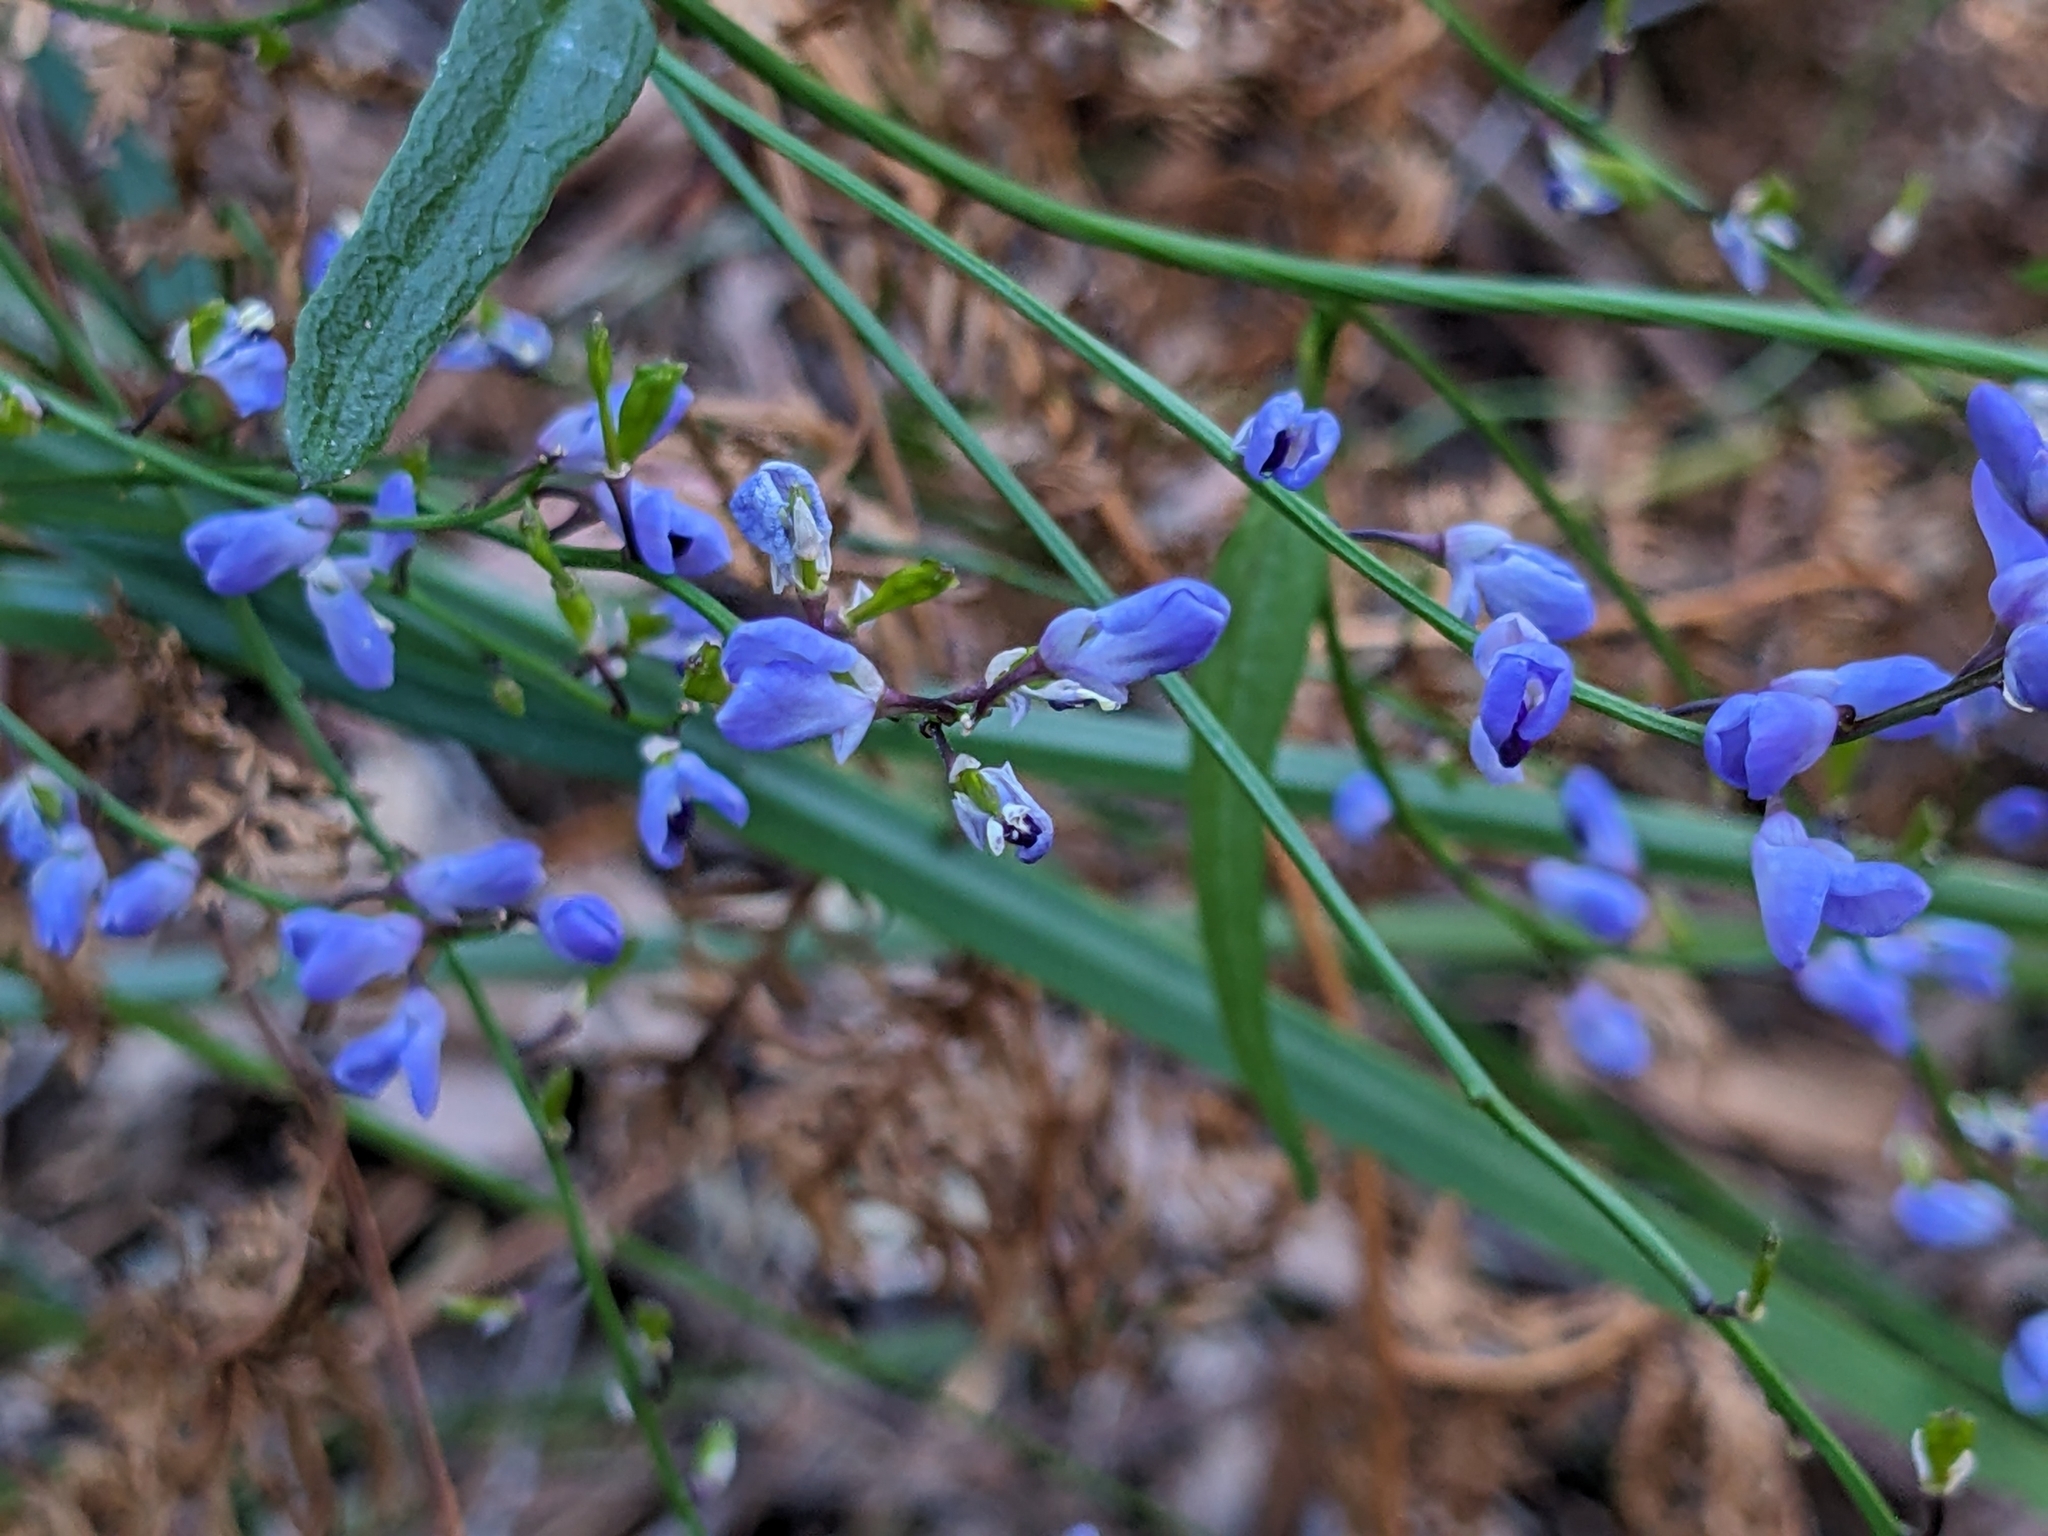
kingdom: Plantae
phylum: Tracheophyta
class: Magnoliopsida
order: Fabales
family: Polygalaceae
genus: Comesperma
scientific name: Comesperma volubile
